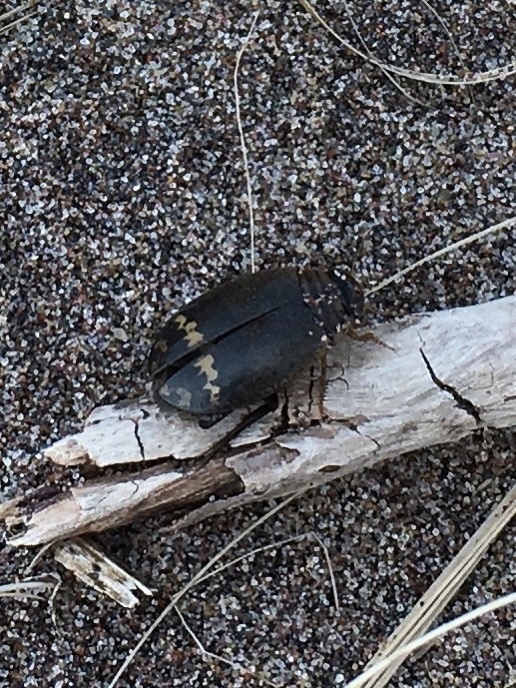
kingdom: Animalia
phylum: Arthropoda
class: Insecta
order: Coleoptera
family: Dytiscidae
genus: Acilius
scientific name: Acilius mediatus
